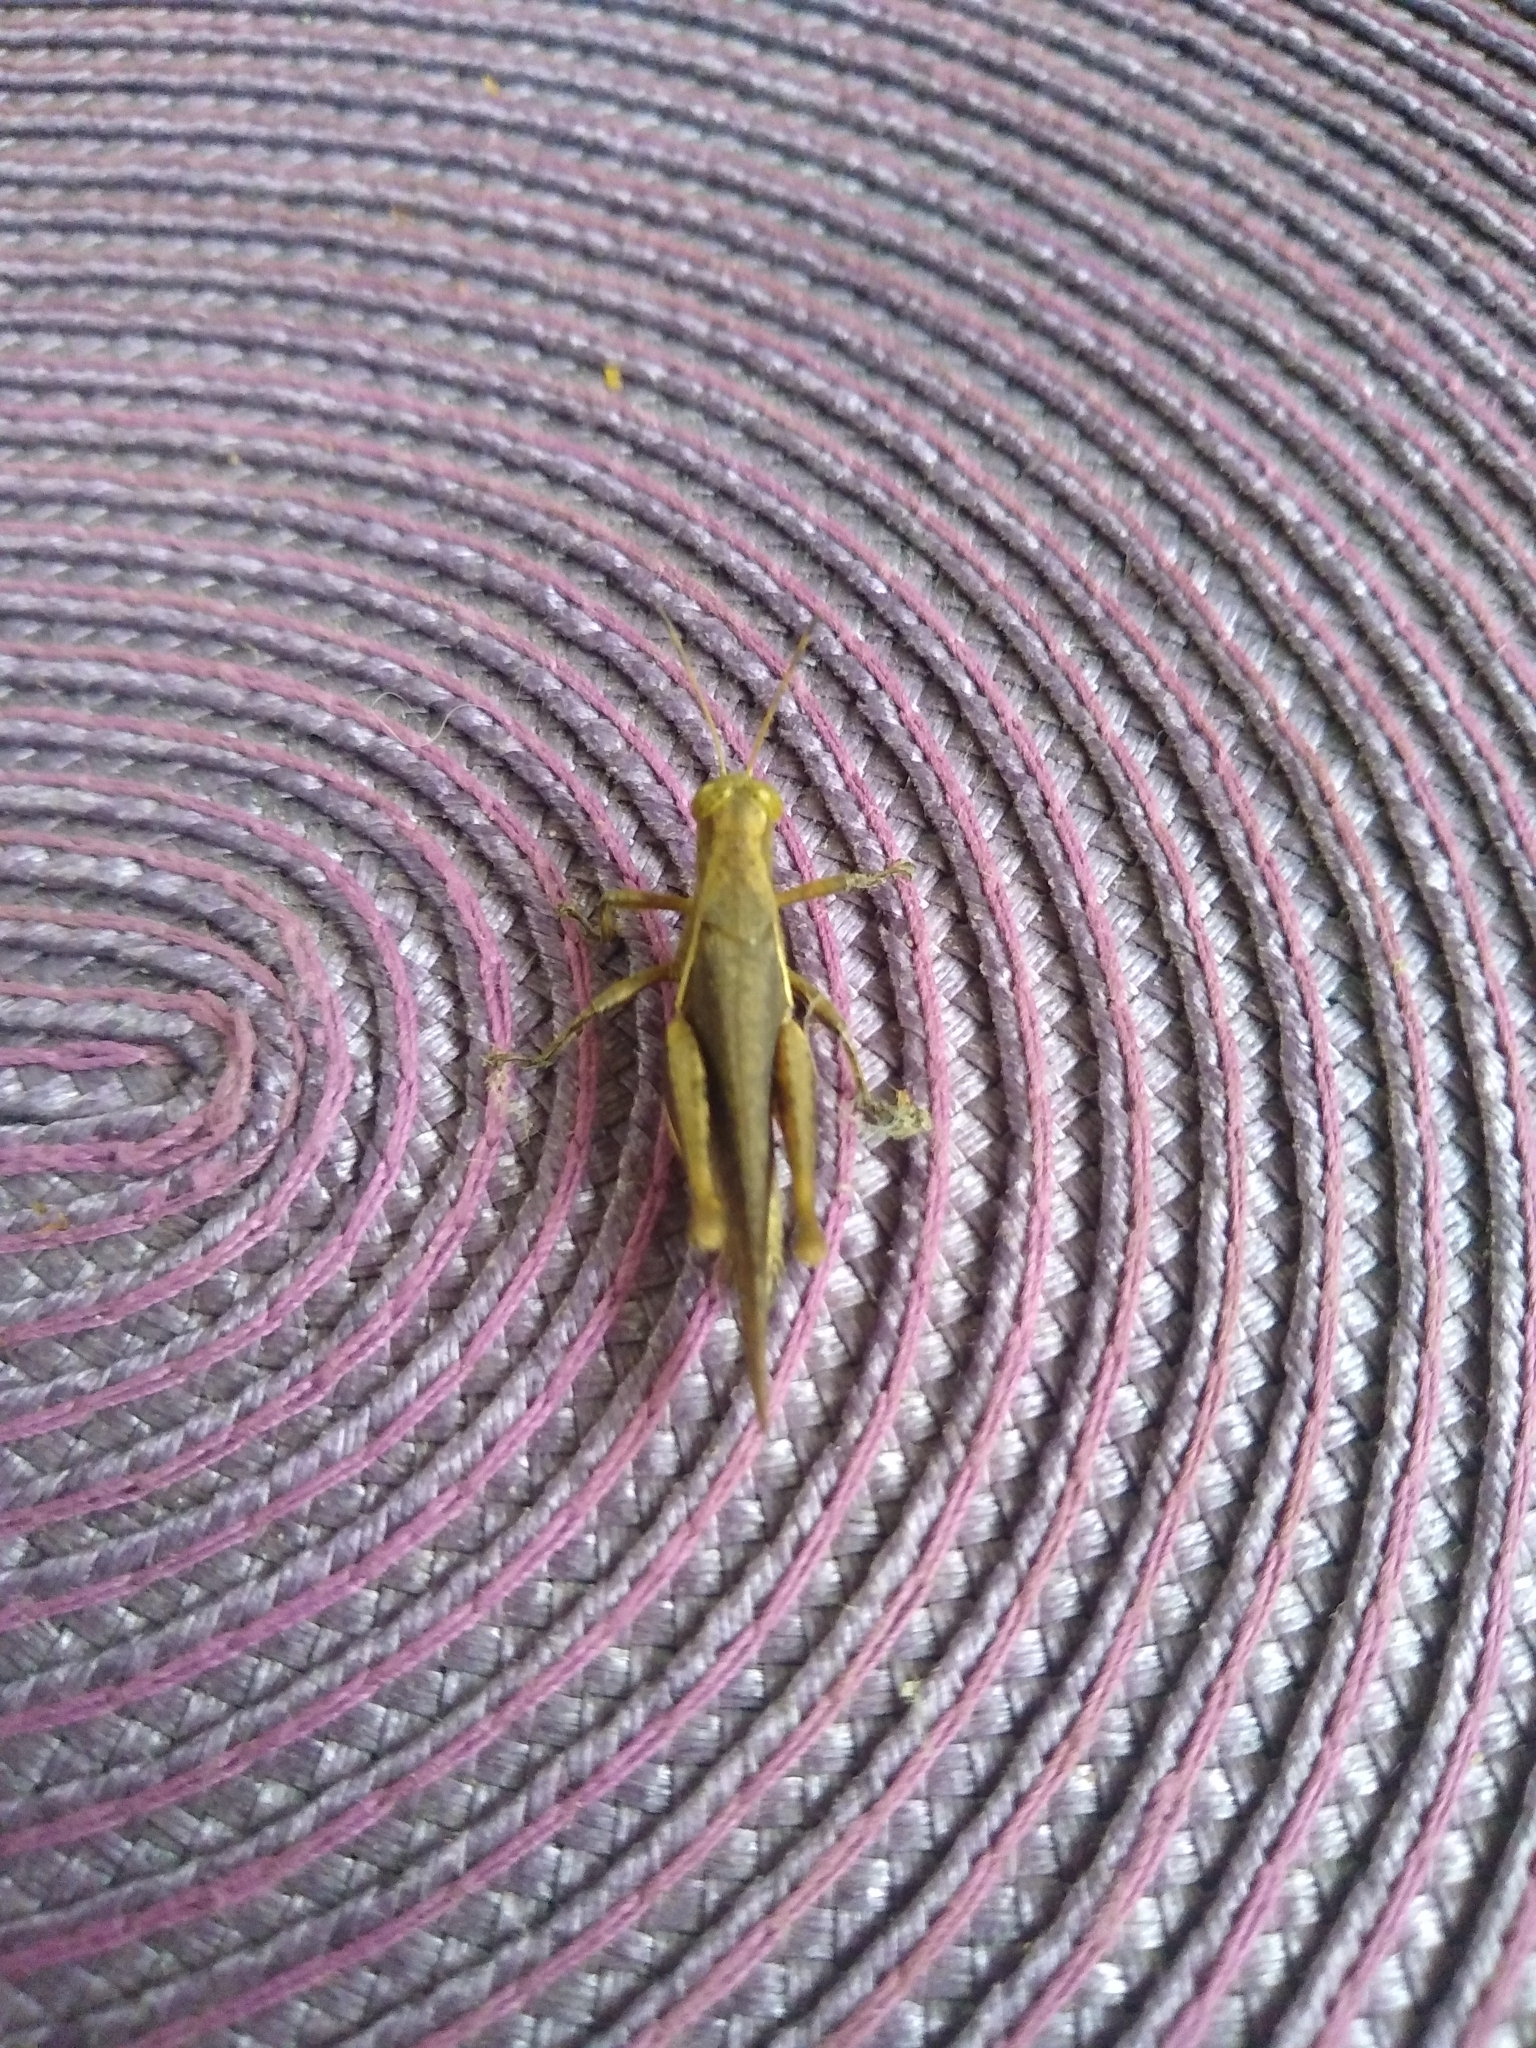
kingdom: Animalia
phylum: Arthropoda
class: Insecta
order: Orthoptera
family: Acrididae
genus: Abracris
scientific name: Abracris flavolineata
